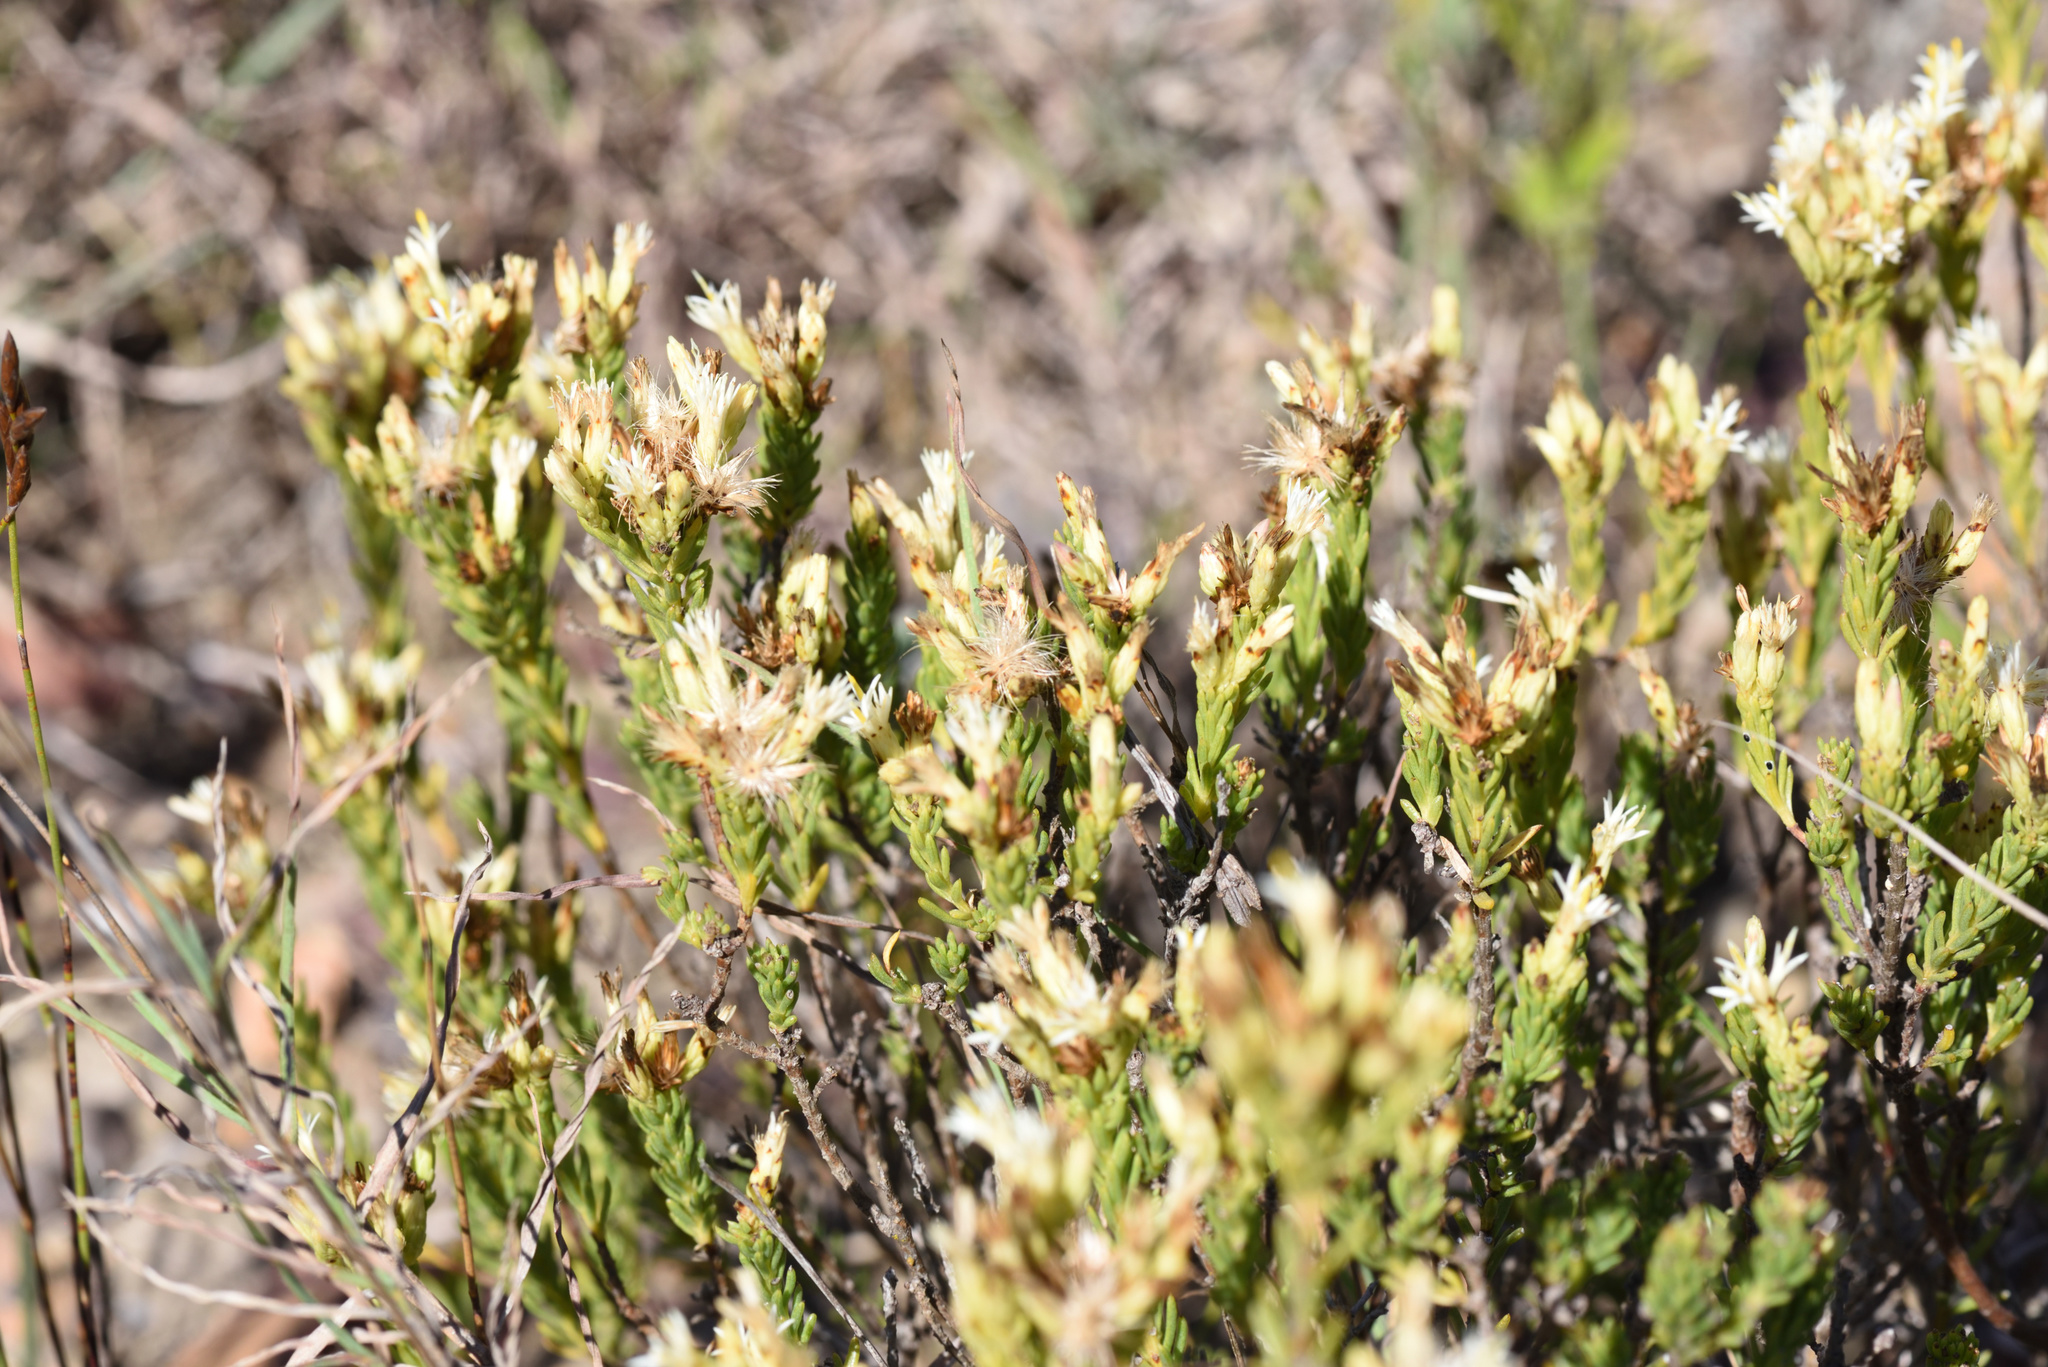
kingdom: Plantae
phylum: Tracheophyta
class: Magnoliopsida
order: Asterales
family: Asteraceae
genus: Pteronia
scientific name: Pteronia teretifolia
